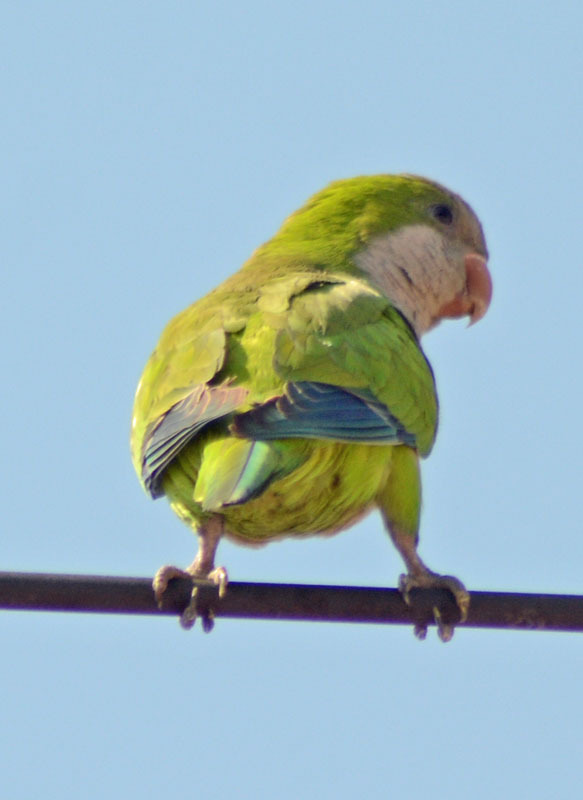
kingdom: Animalia
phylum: Chordata
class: Aves
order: Psittaciformes
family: Psittacidae
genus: Myiopsitta
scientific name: Myiopsitta monachus
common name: Monk parakeet
